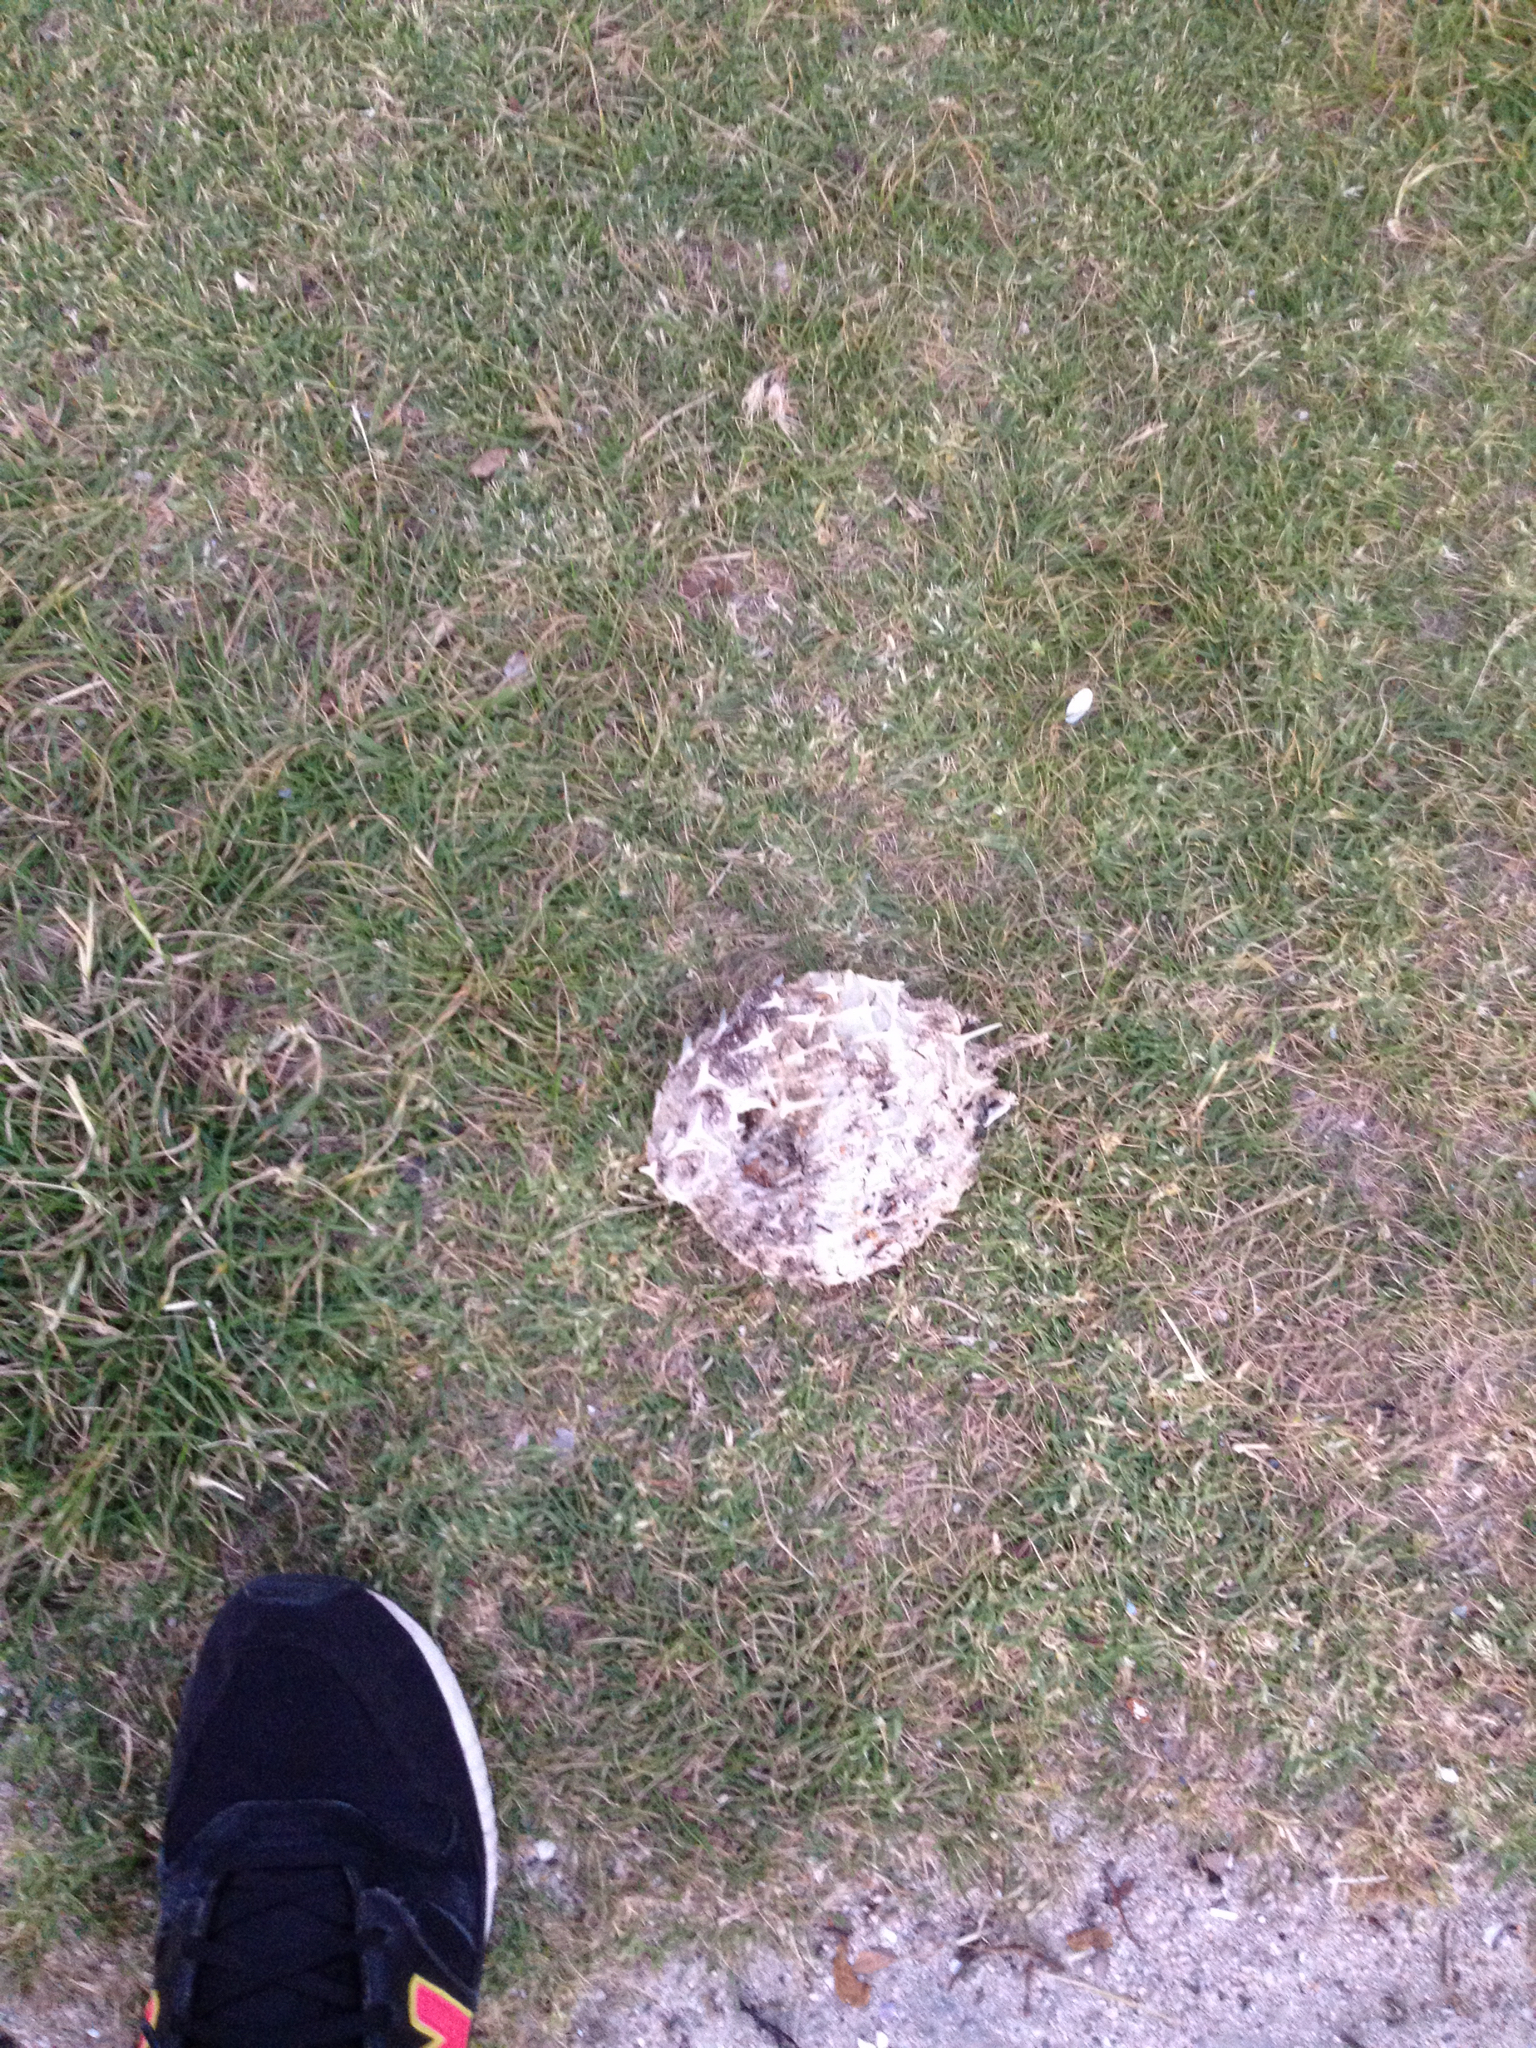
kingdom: Animalia
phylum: Chordata
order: Tetraodontiformes
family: Diodontidae
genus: Allomycterus
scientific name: Allomycterus pilatus
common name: No common name
